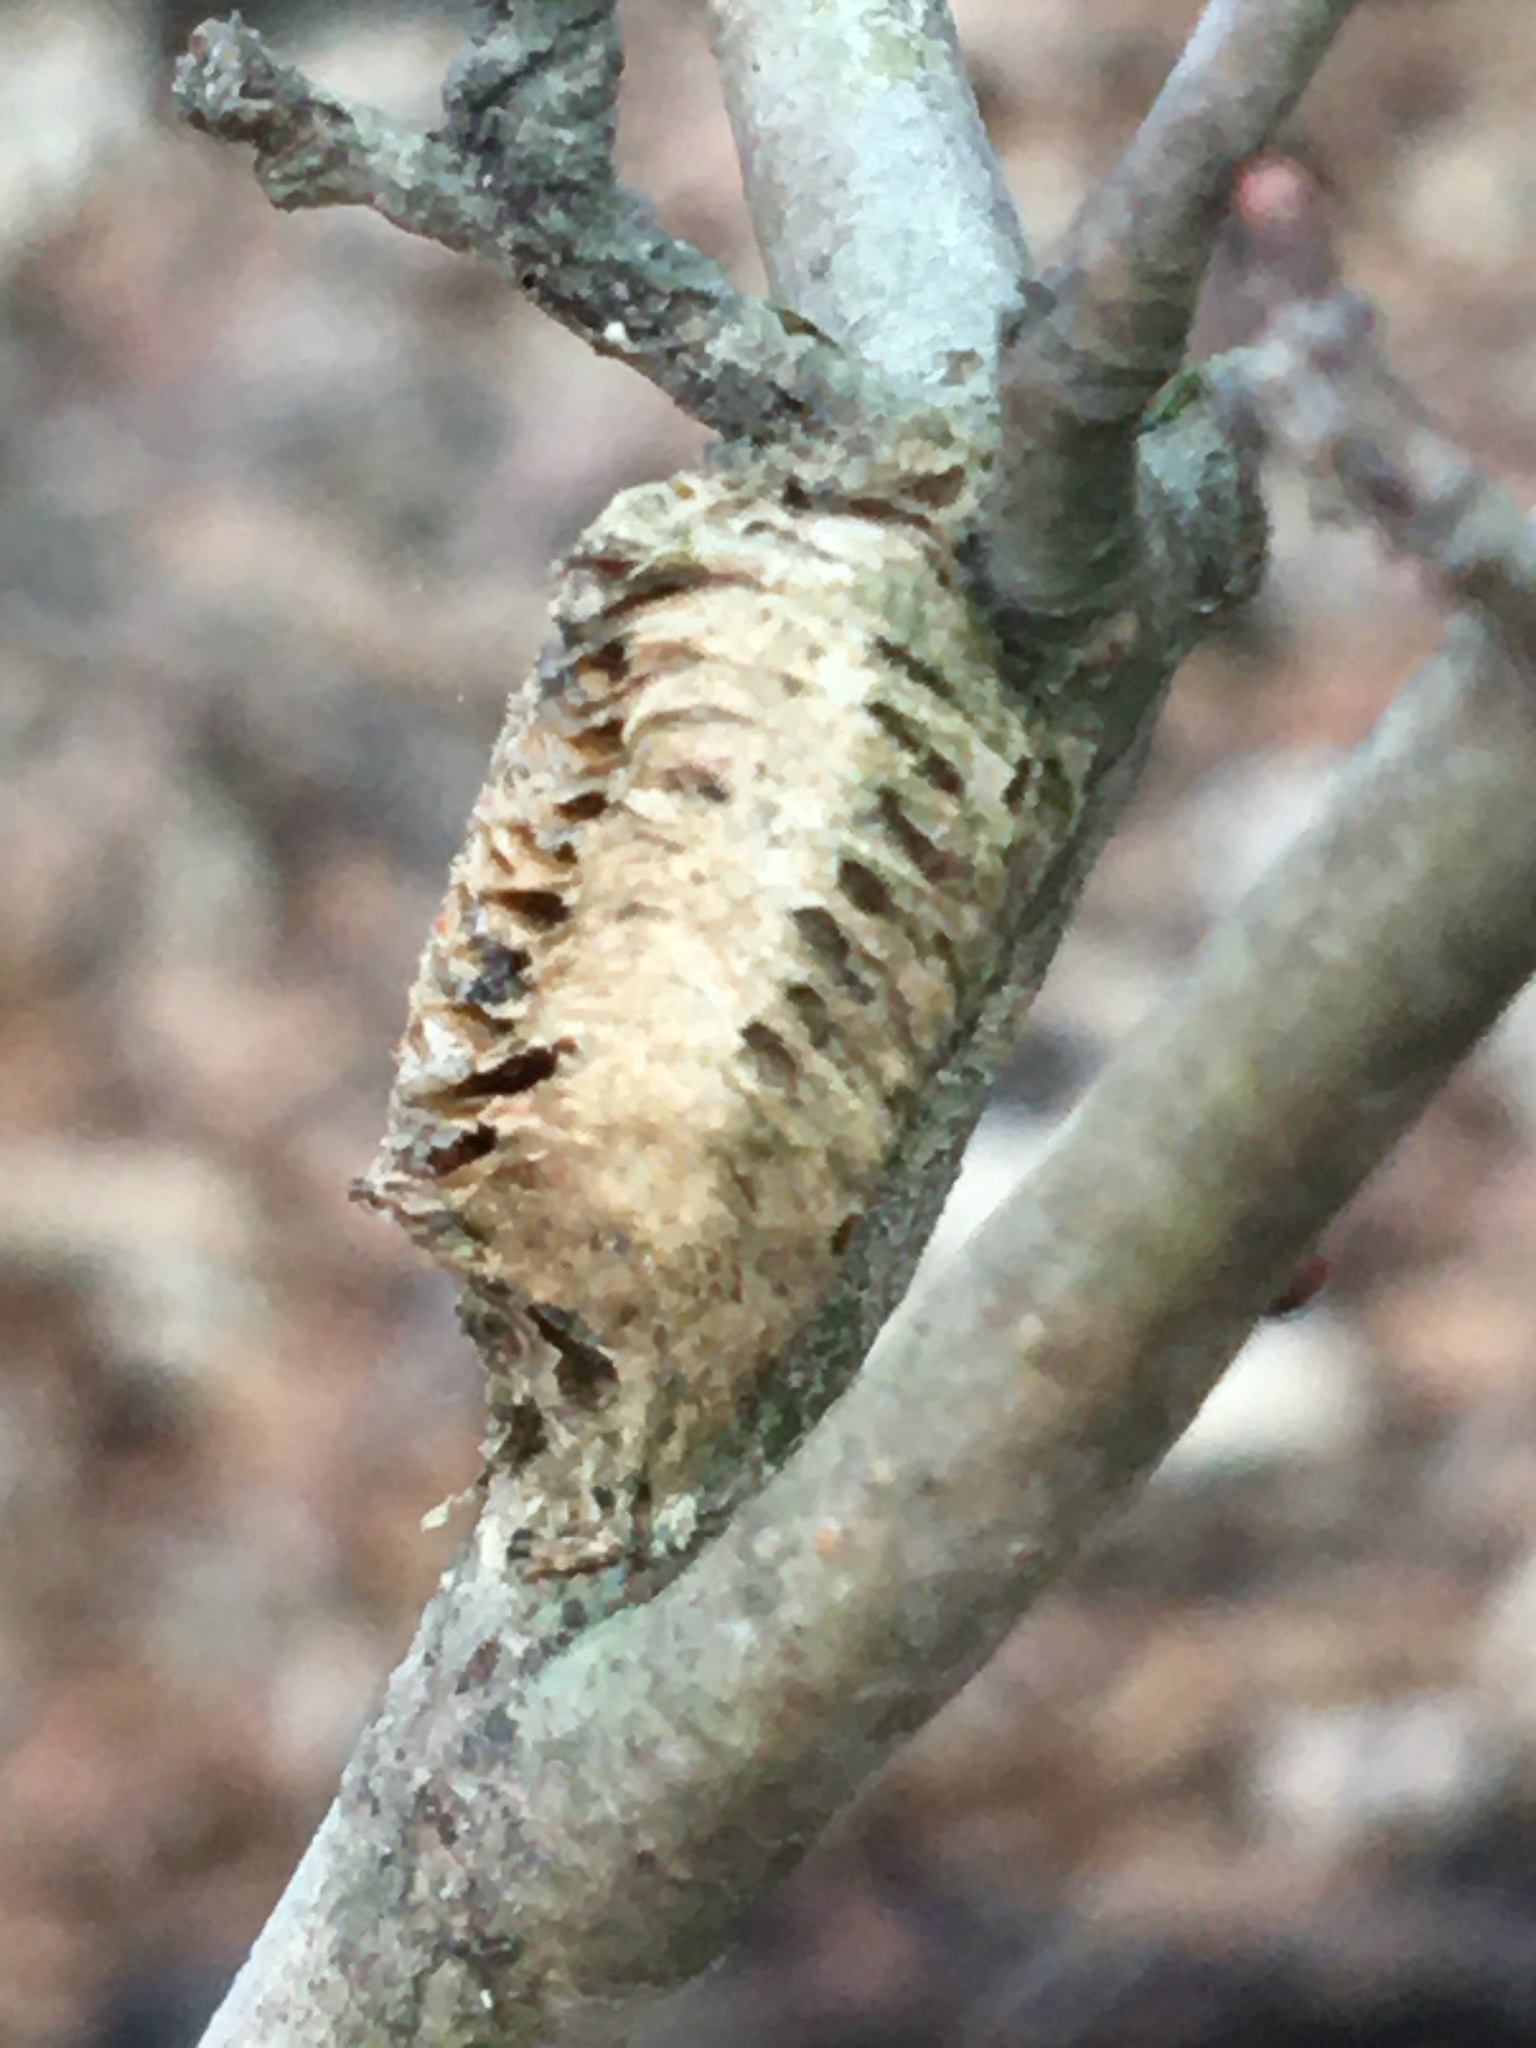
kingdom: Animalia
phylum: Arthropoda
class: Insecta
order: Mantodea
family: Mantidae
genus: Stagmomantis
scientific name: Stagmomantis carolina
